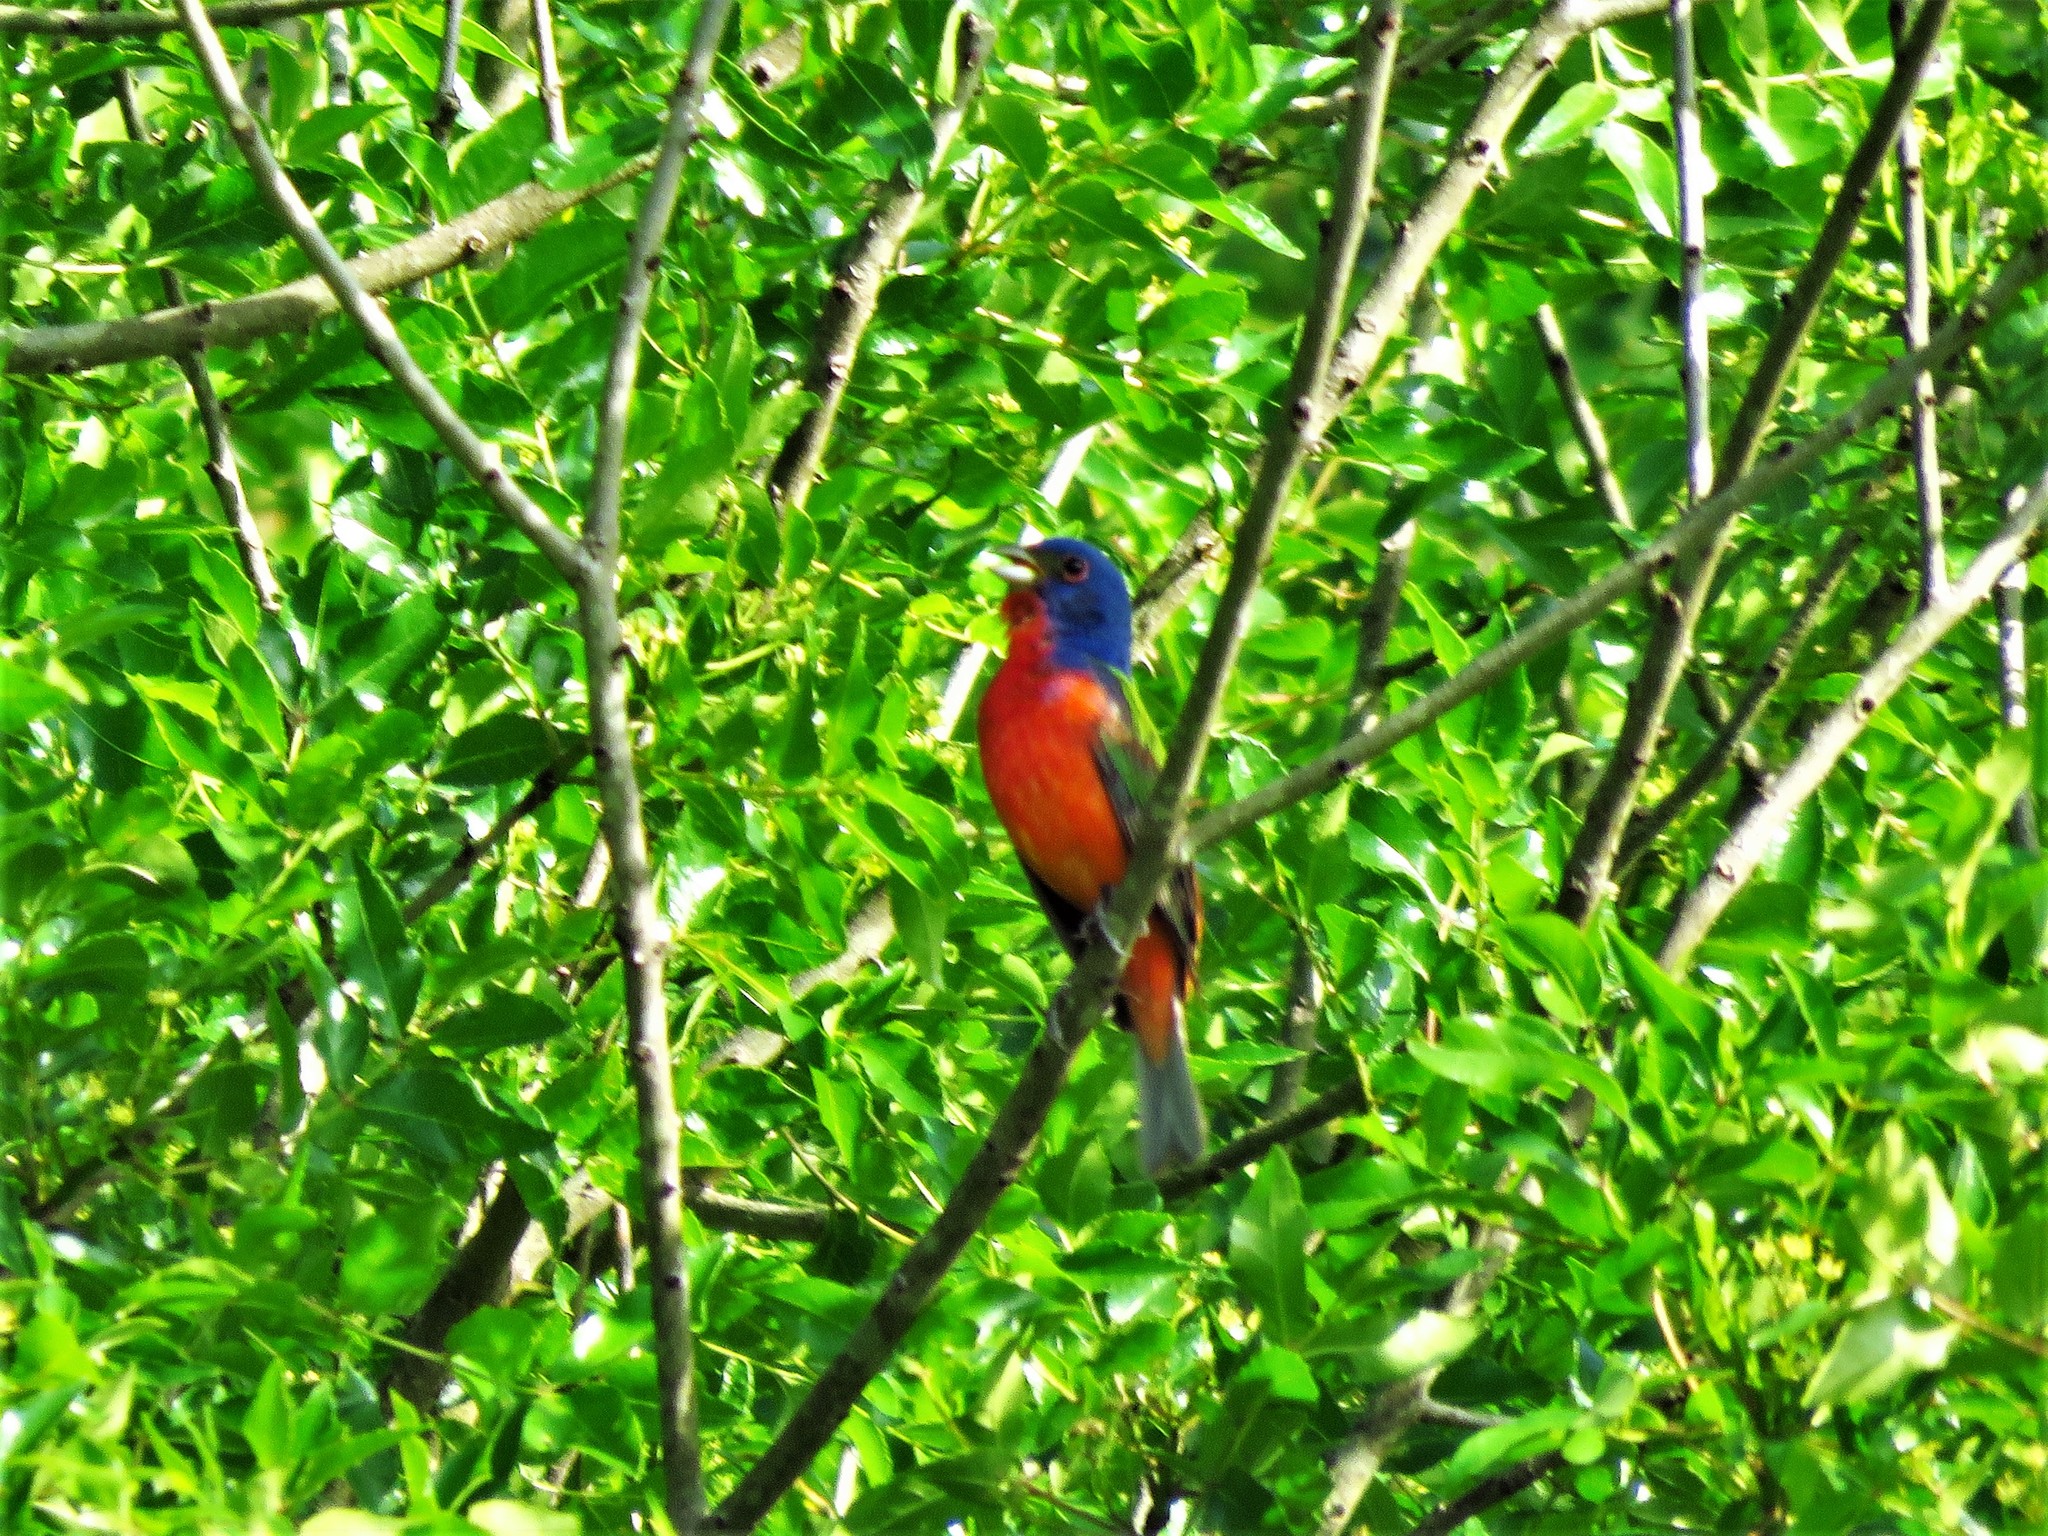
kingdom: Animalia
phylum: Chordata
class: Aves
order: Passeriformes
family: Cardinalidae
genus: Passerina
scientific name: Passerina ciris
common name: Painted bunting
